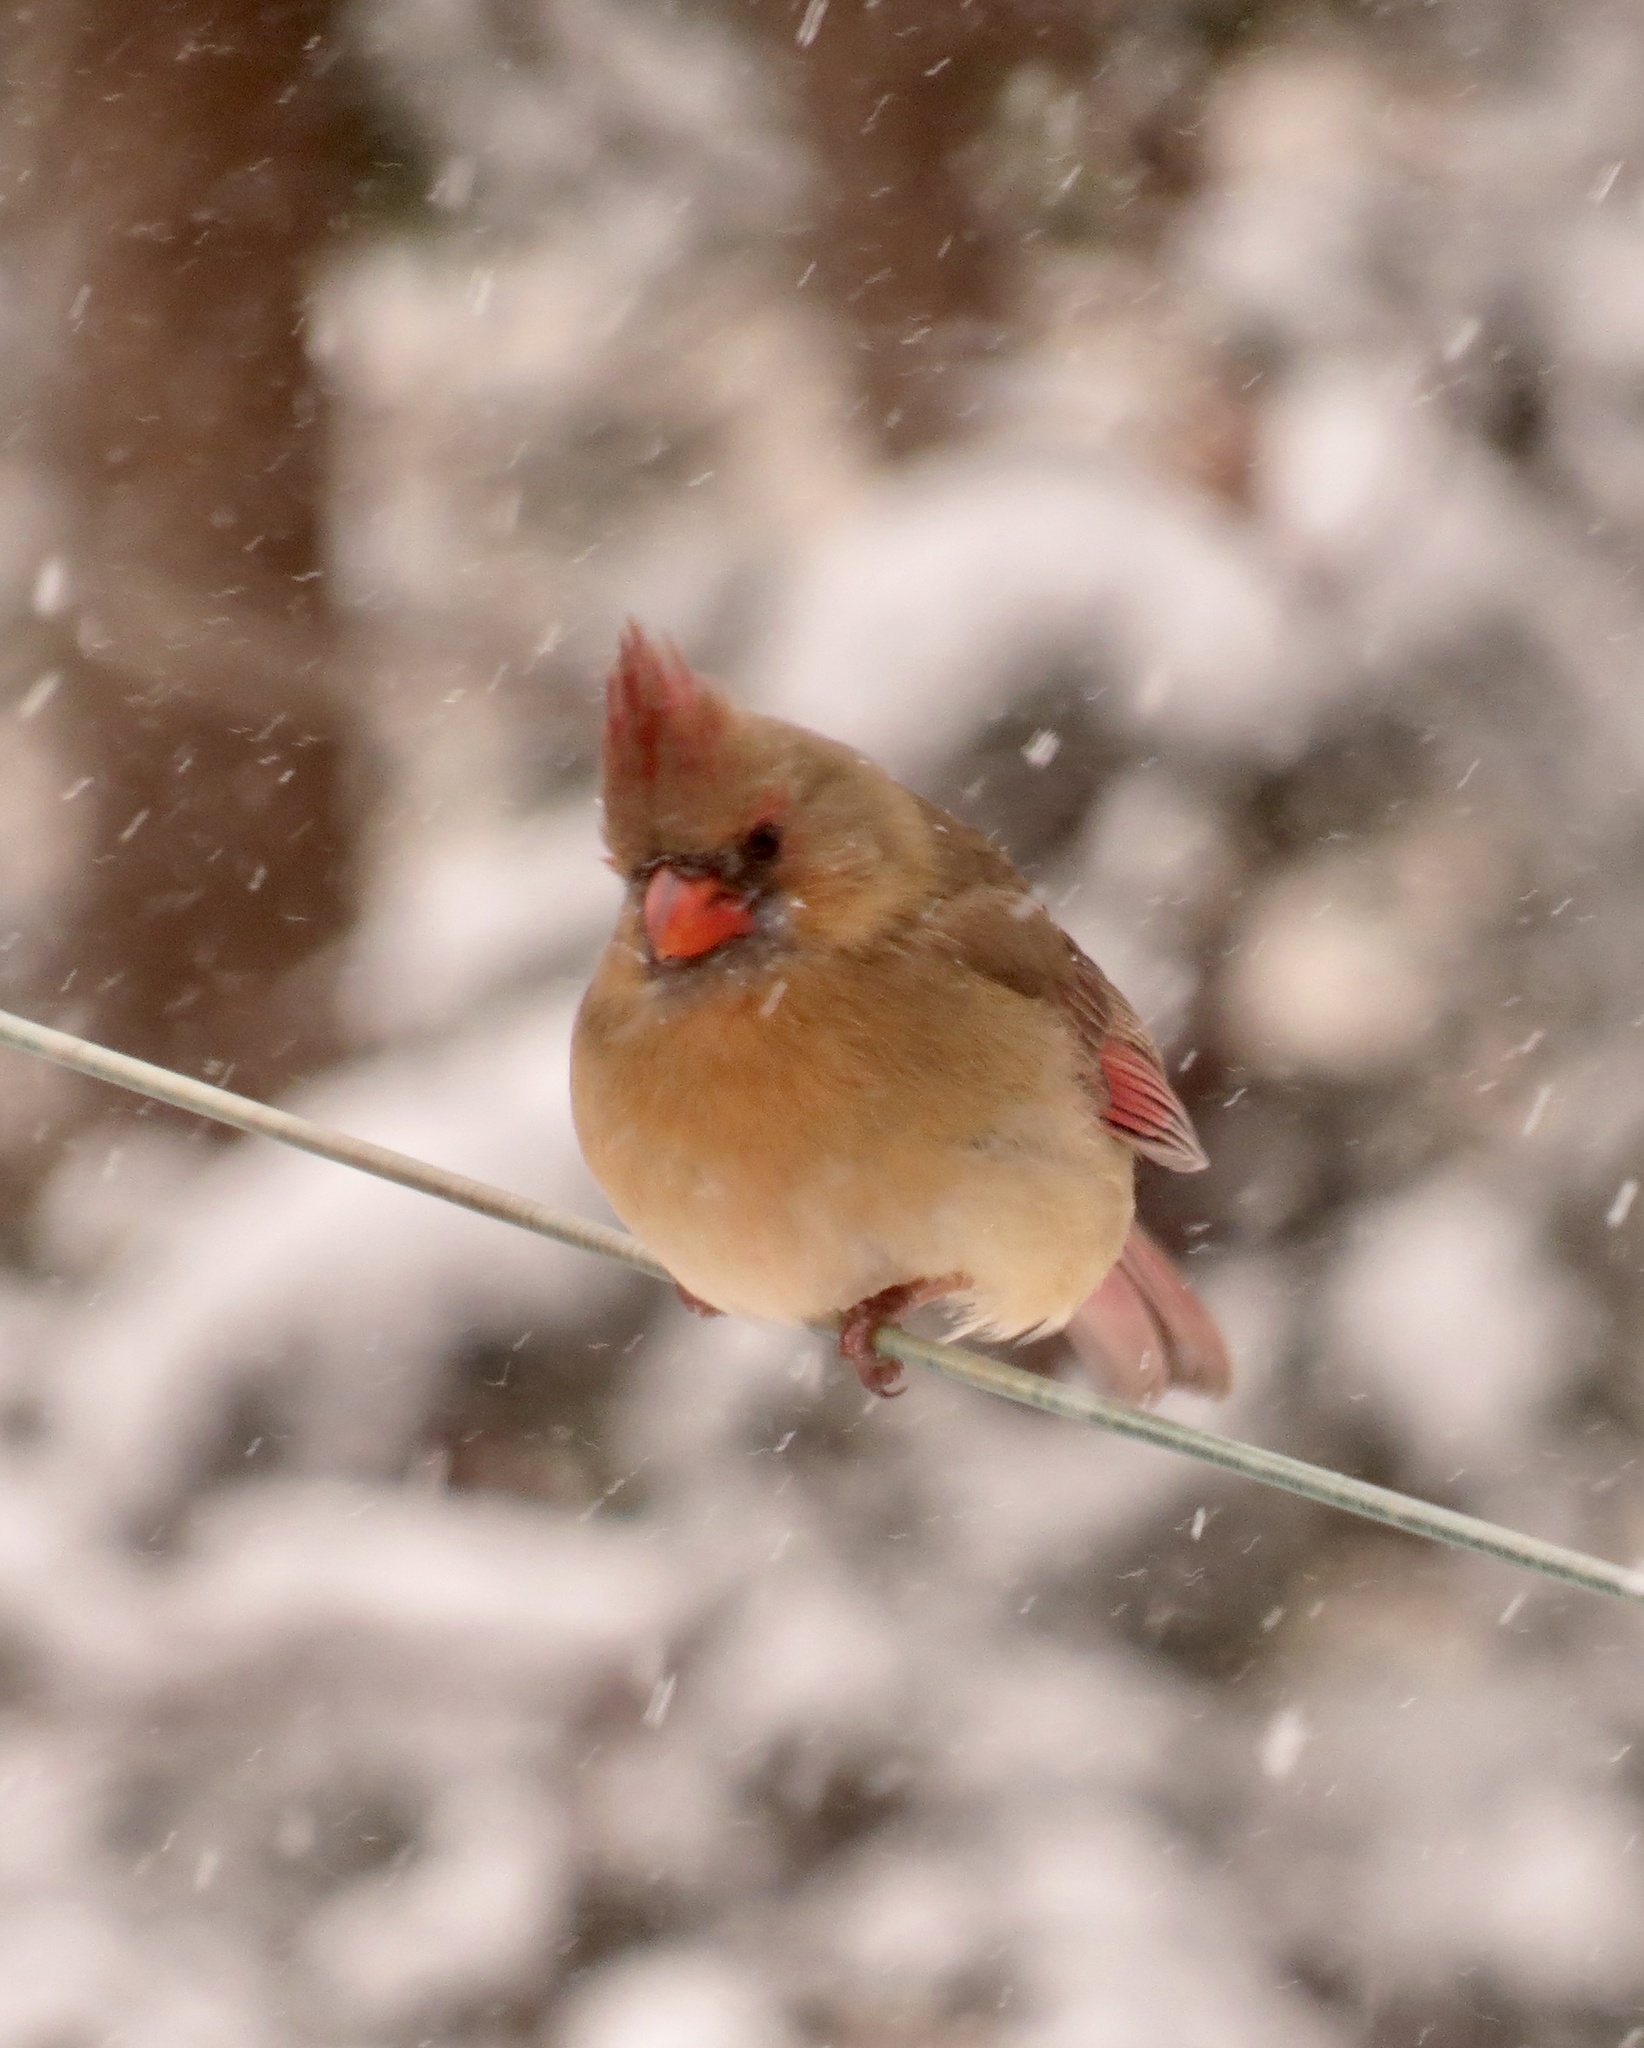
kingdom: Animalia
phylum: Chordata
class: Aves
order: Passeriformes
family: Cardinalidae
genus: Cardinalis
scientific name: Cardinalis cardinalis
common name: Northern cardinal
